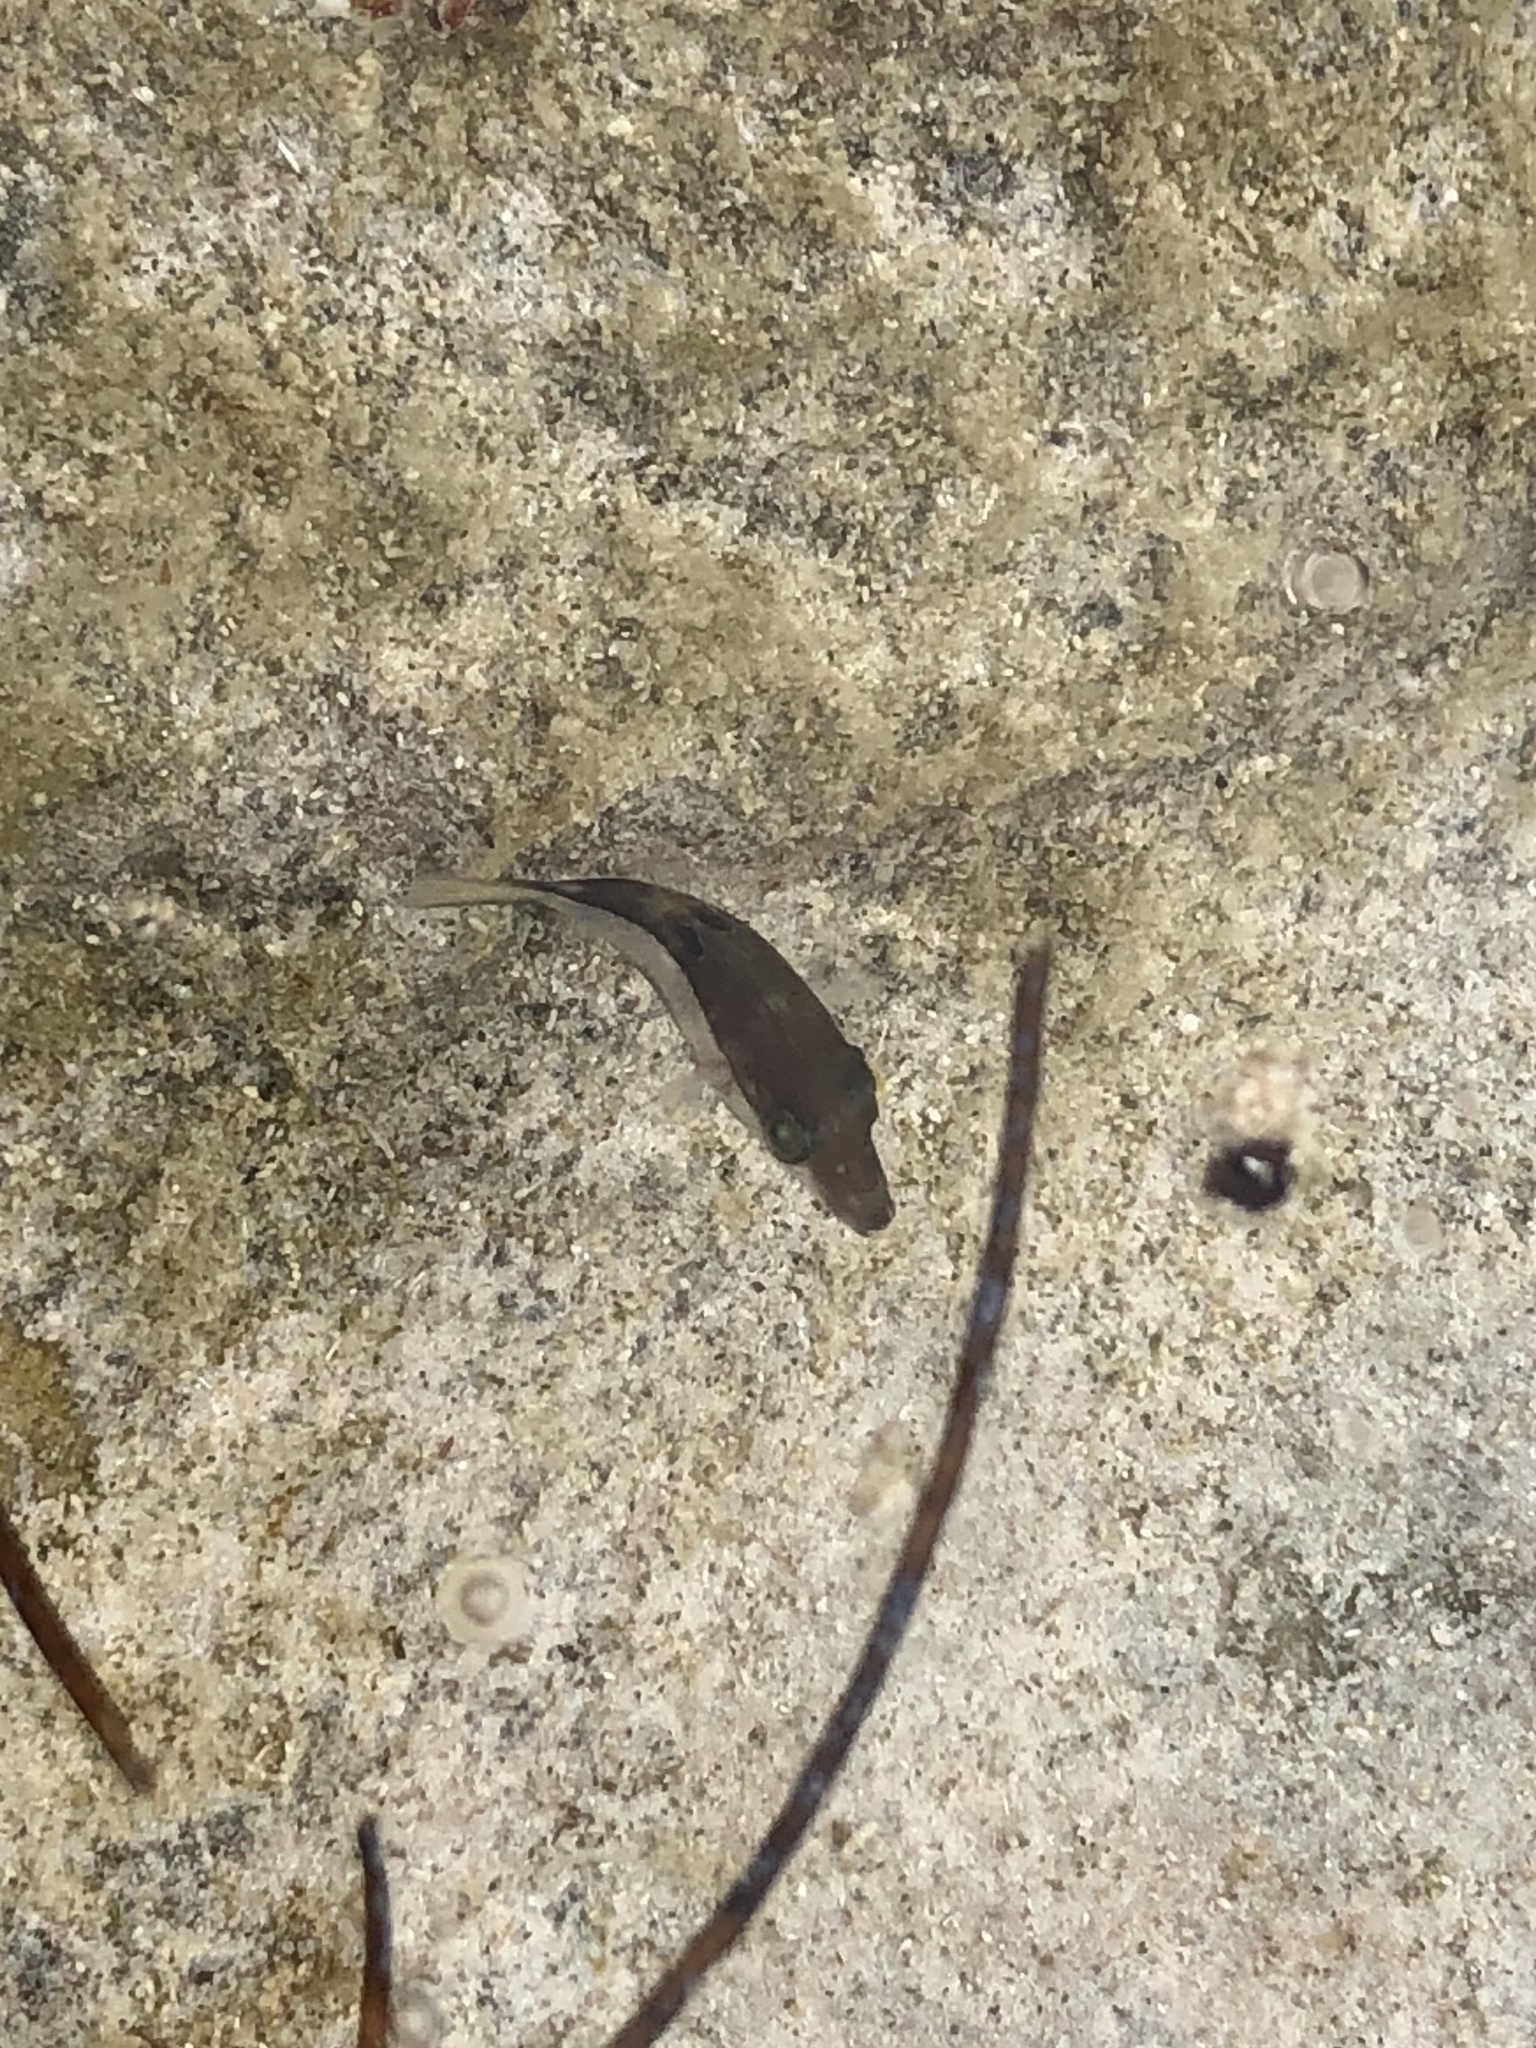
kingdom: Animalia
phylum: Chordata
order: Tetraodontiformes
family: Tetraodontidae
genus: Canthigaster
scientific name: Canthigaster rostrata
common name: Caribbean sharpnose-puffer
